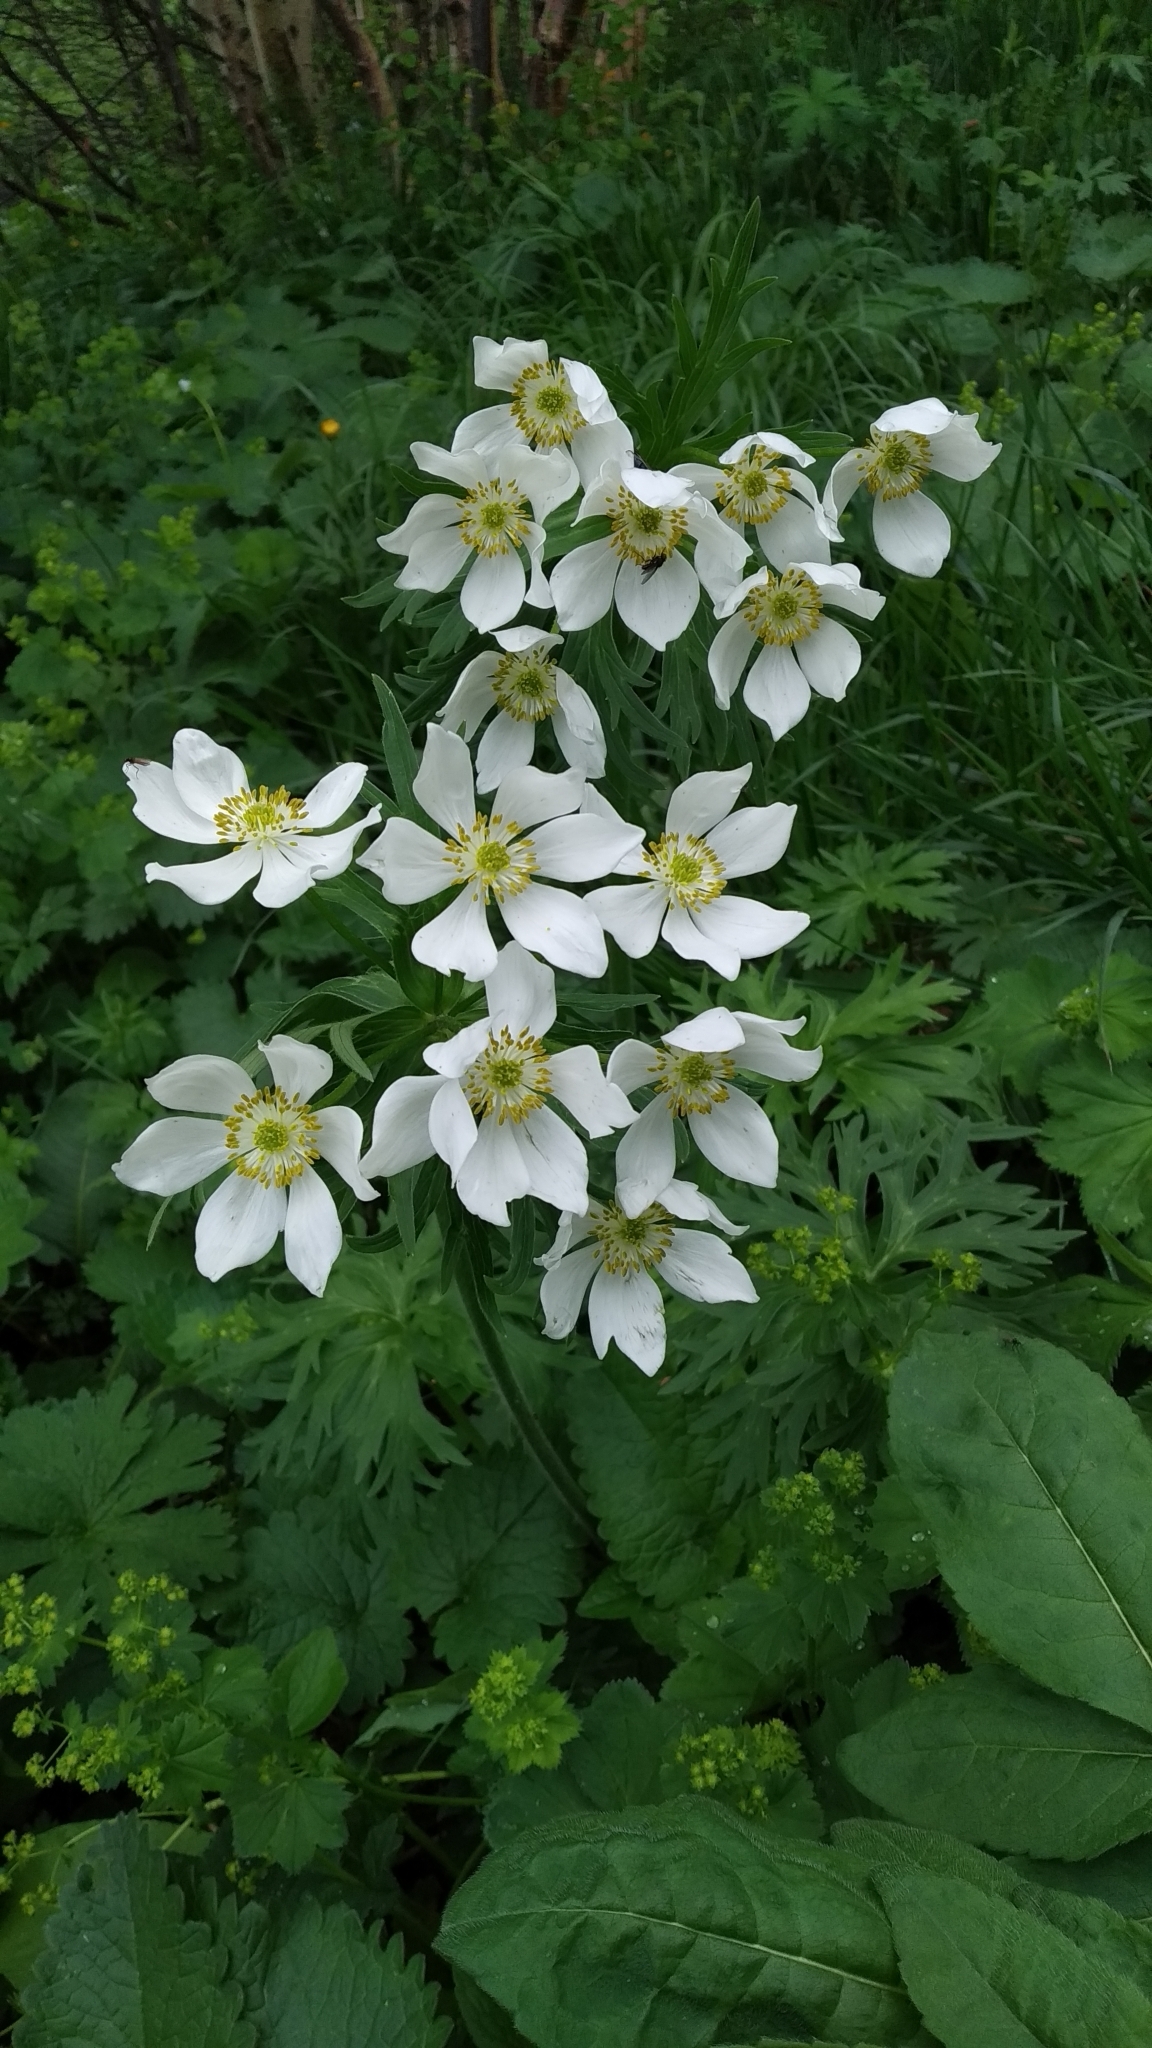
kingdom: Plantae
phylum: Tracheophyta
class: Magnoliopsida
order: Ranunculales
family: Ranunculaceae
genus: Anemonastrum
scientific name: Anemonastrum narcissiflorum
